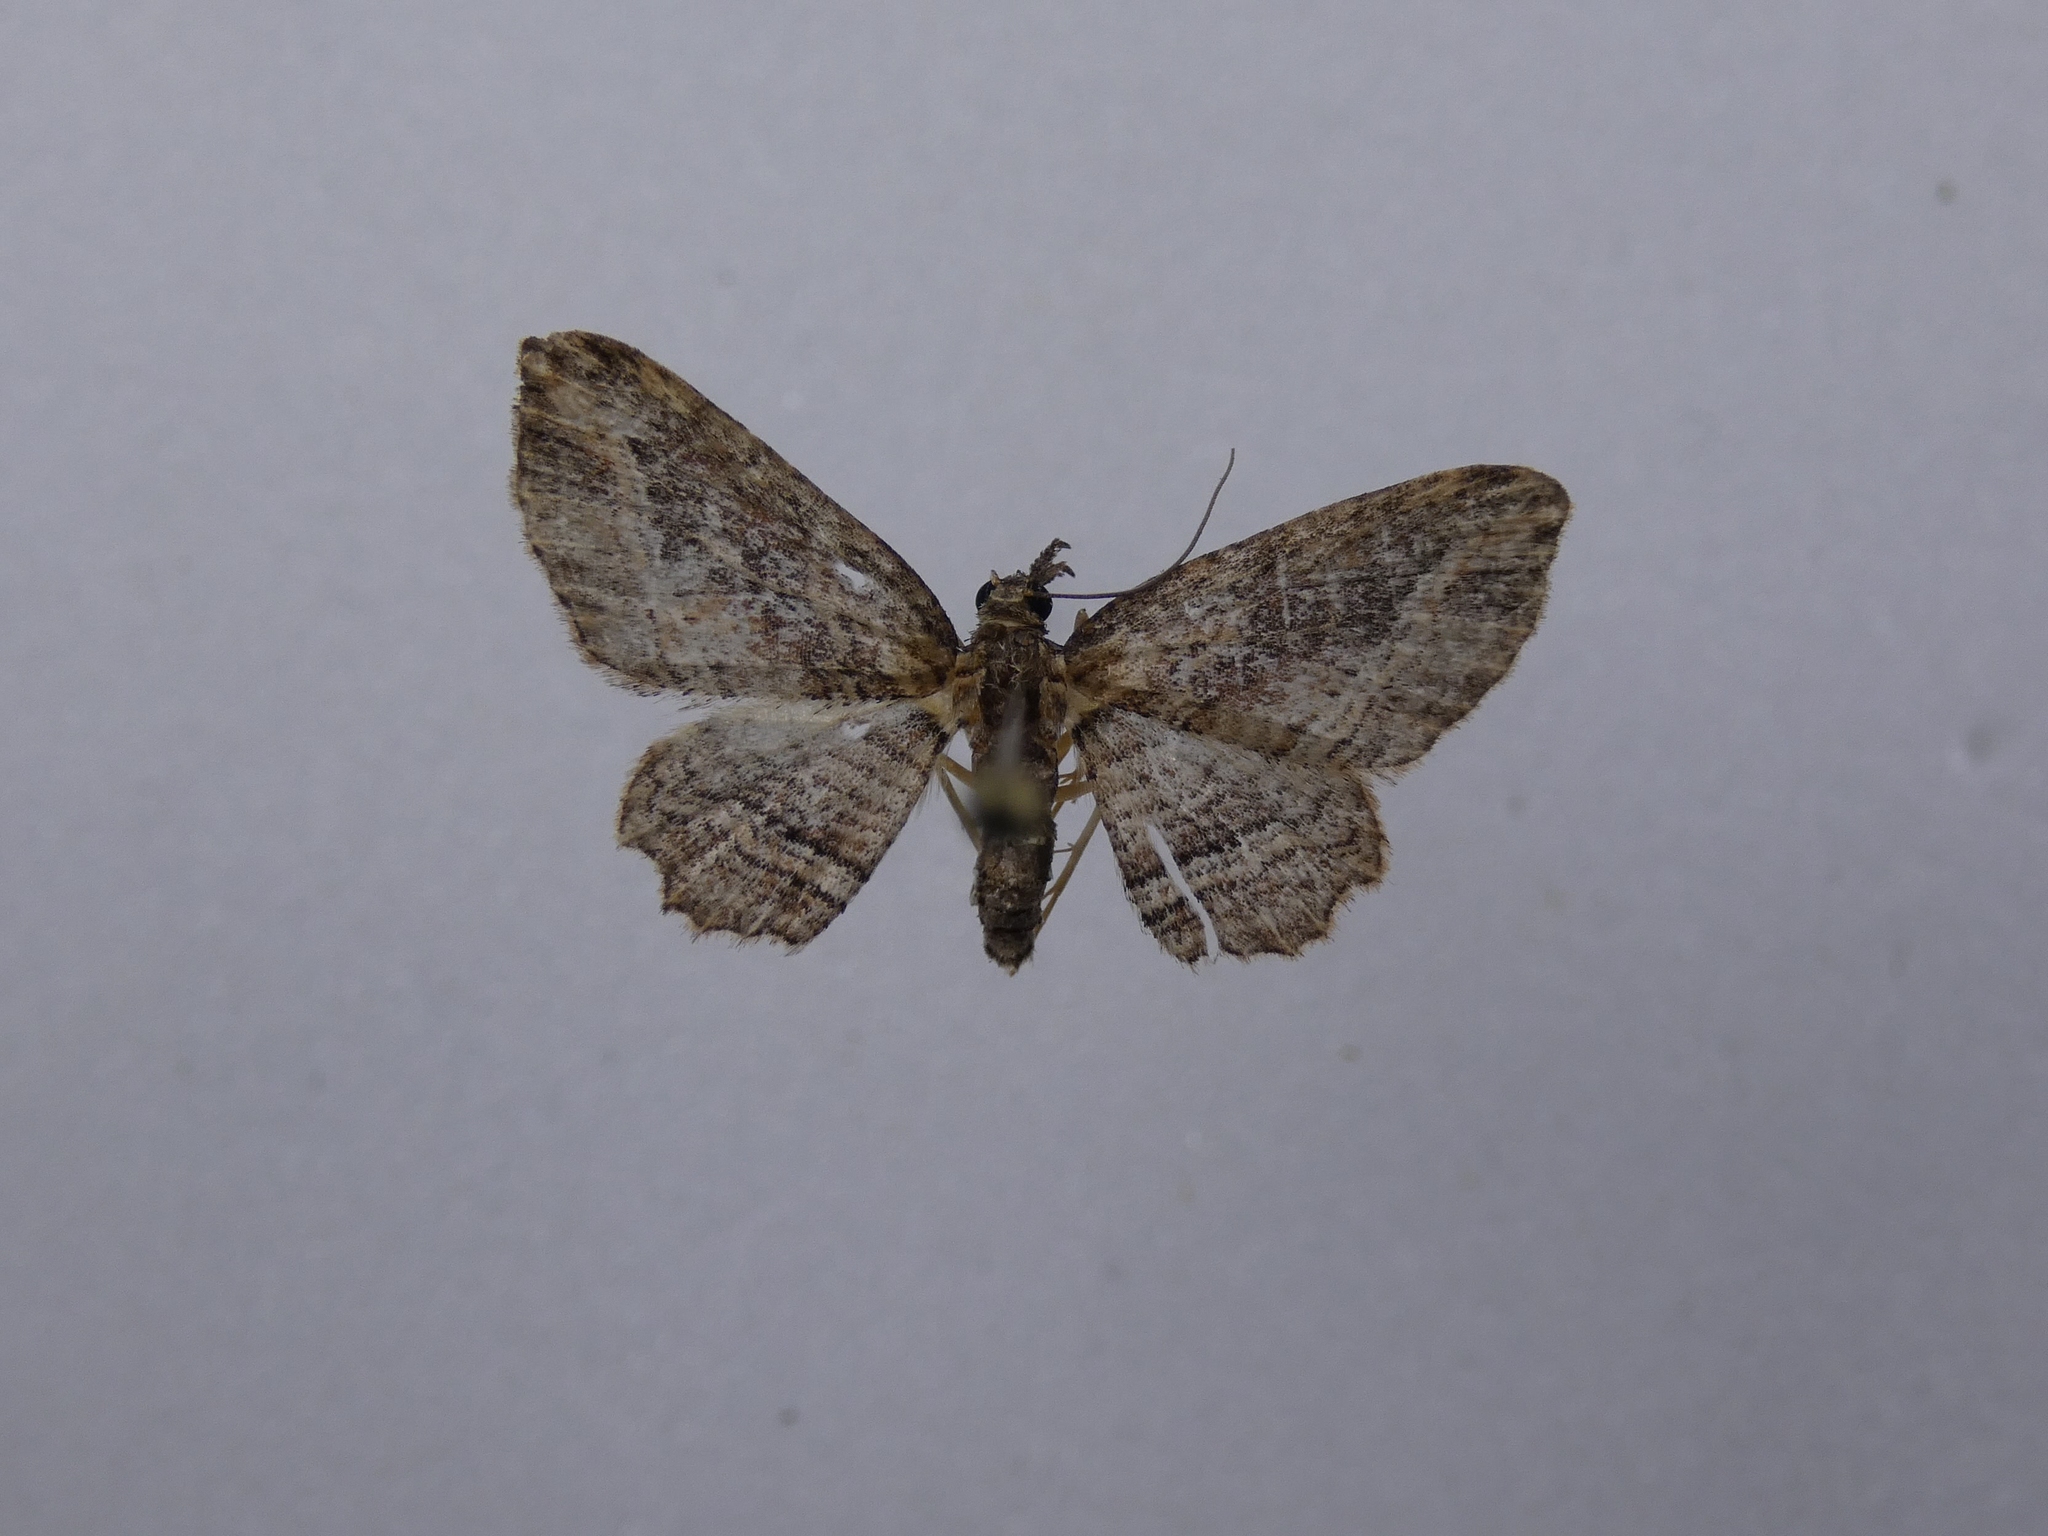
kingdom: Animalia
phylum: Arthropoda
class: Insecta
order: Lepidoptera
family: Geometridae
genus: Chloroclystis
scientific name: Chloroclystis filata
